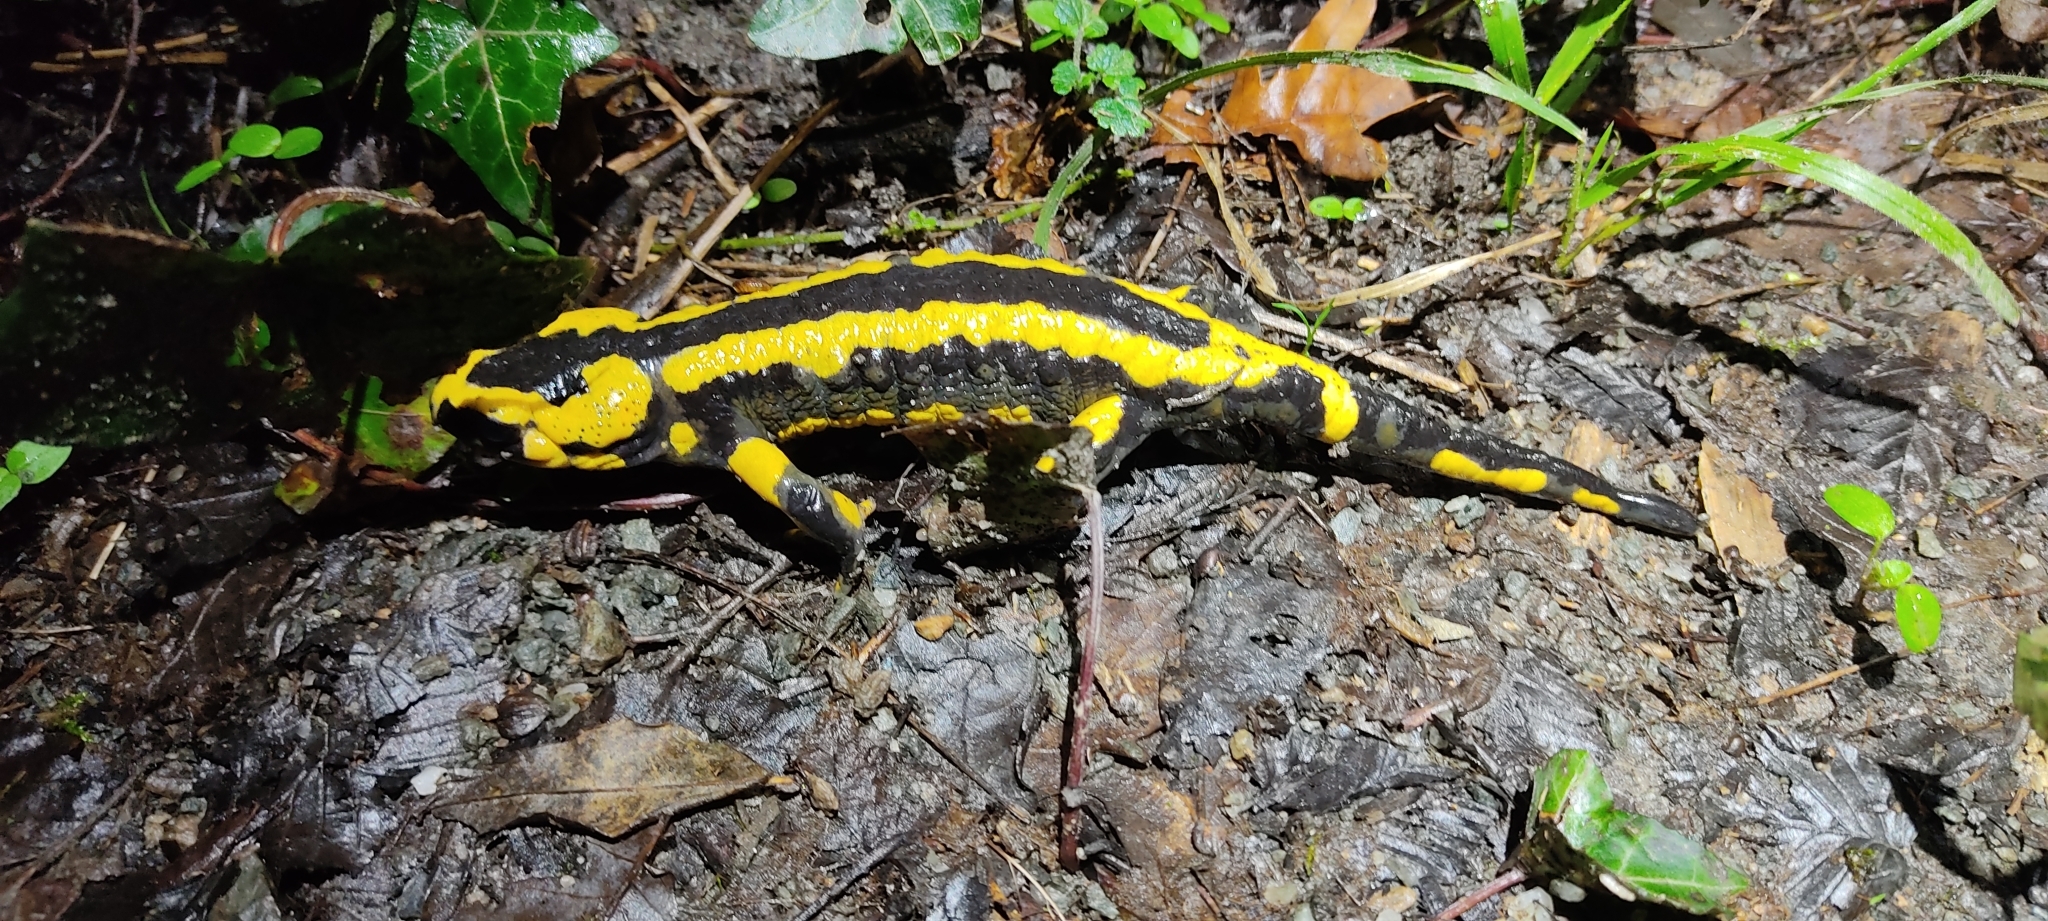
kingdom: Animalia
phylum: Chordata
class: Amphibia
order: Caudata
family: Salamandridae
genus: Salamandra
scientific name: Salamandra salamandra
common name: Fire salamander
